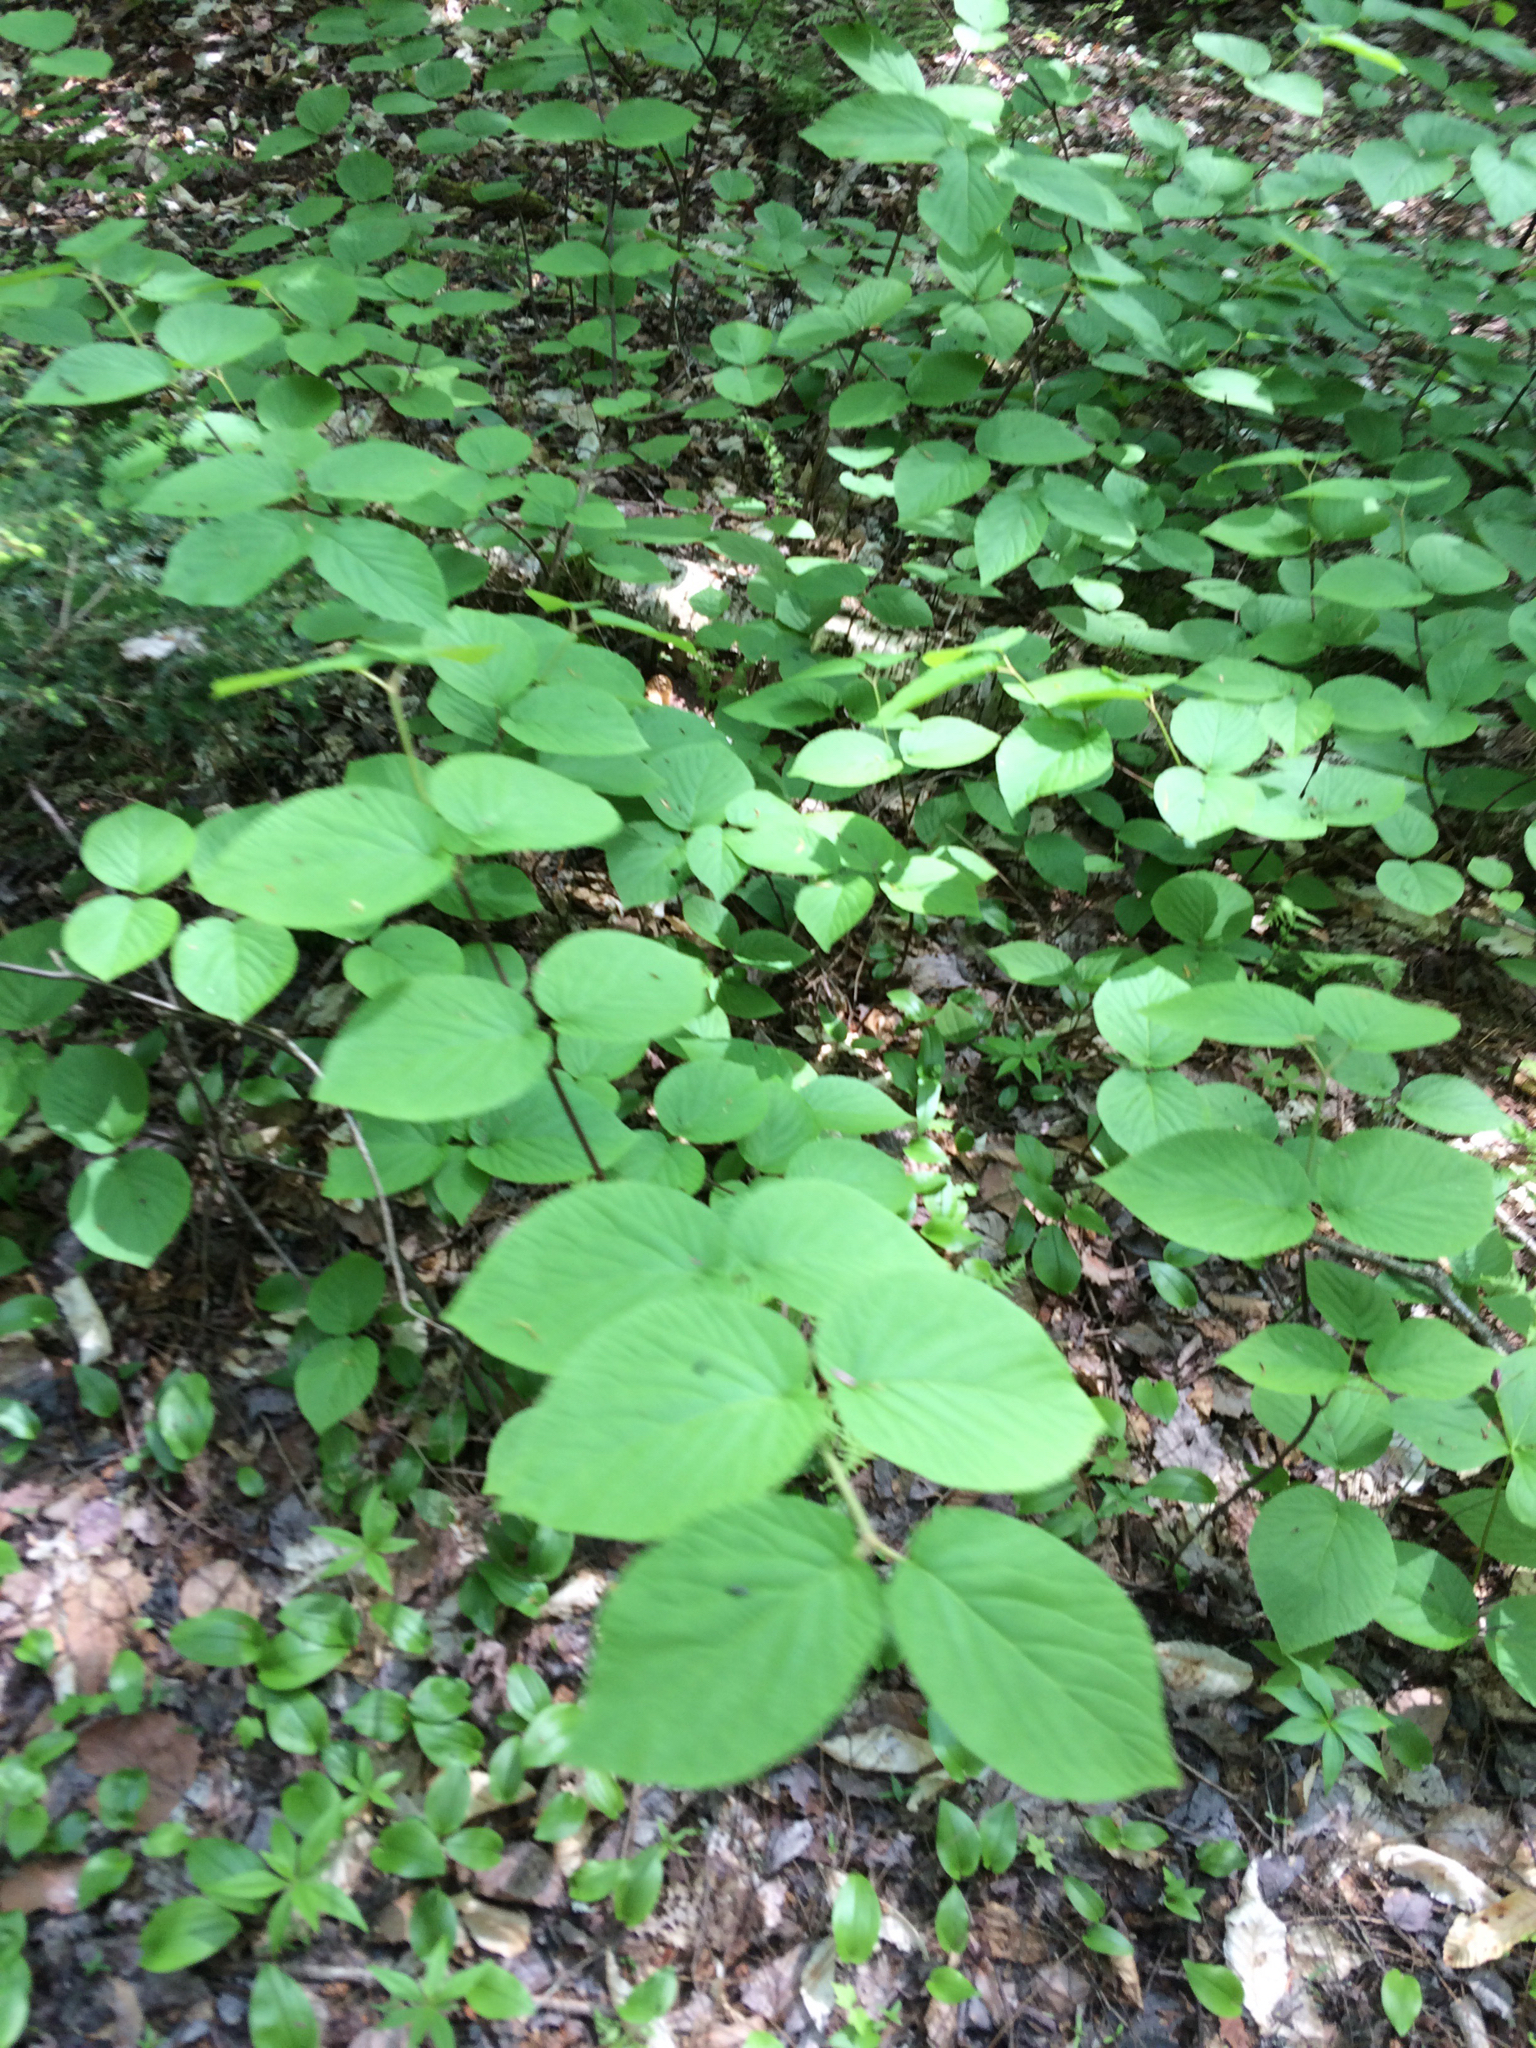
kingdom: Plantae
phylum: Tracheophyta
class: Magnoliopsida
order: Dipsacales
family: Viburnaceae
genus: Viburnum
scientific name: Viburnum lantanoides
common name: Hobblebush
